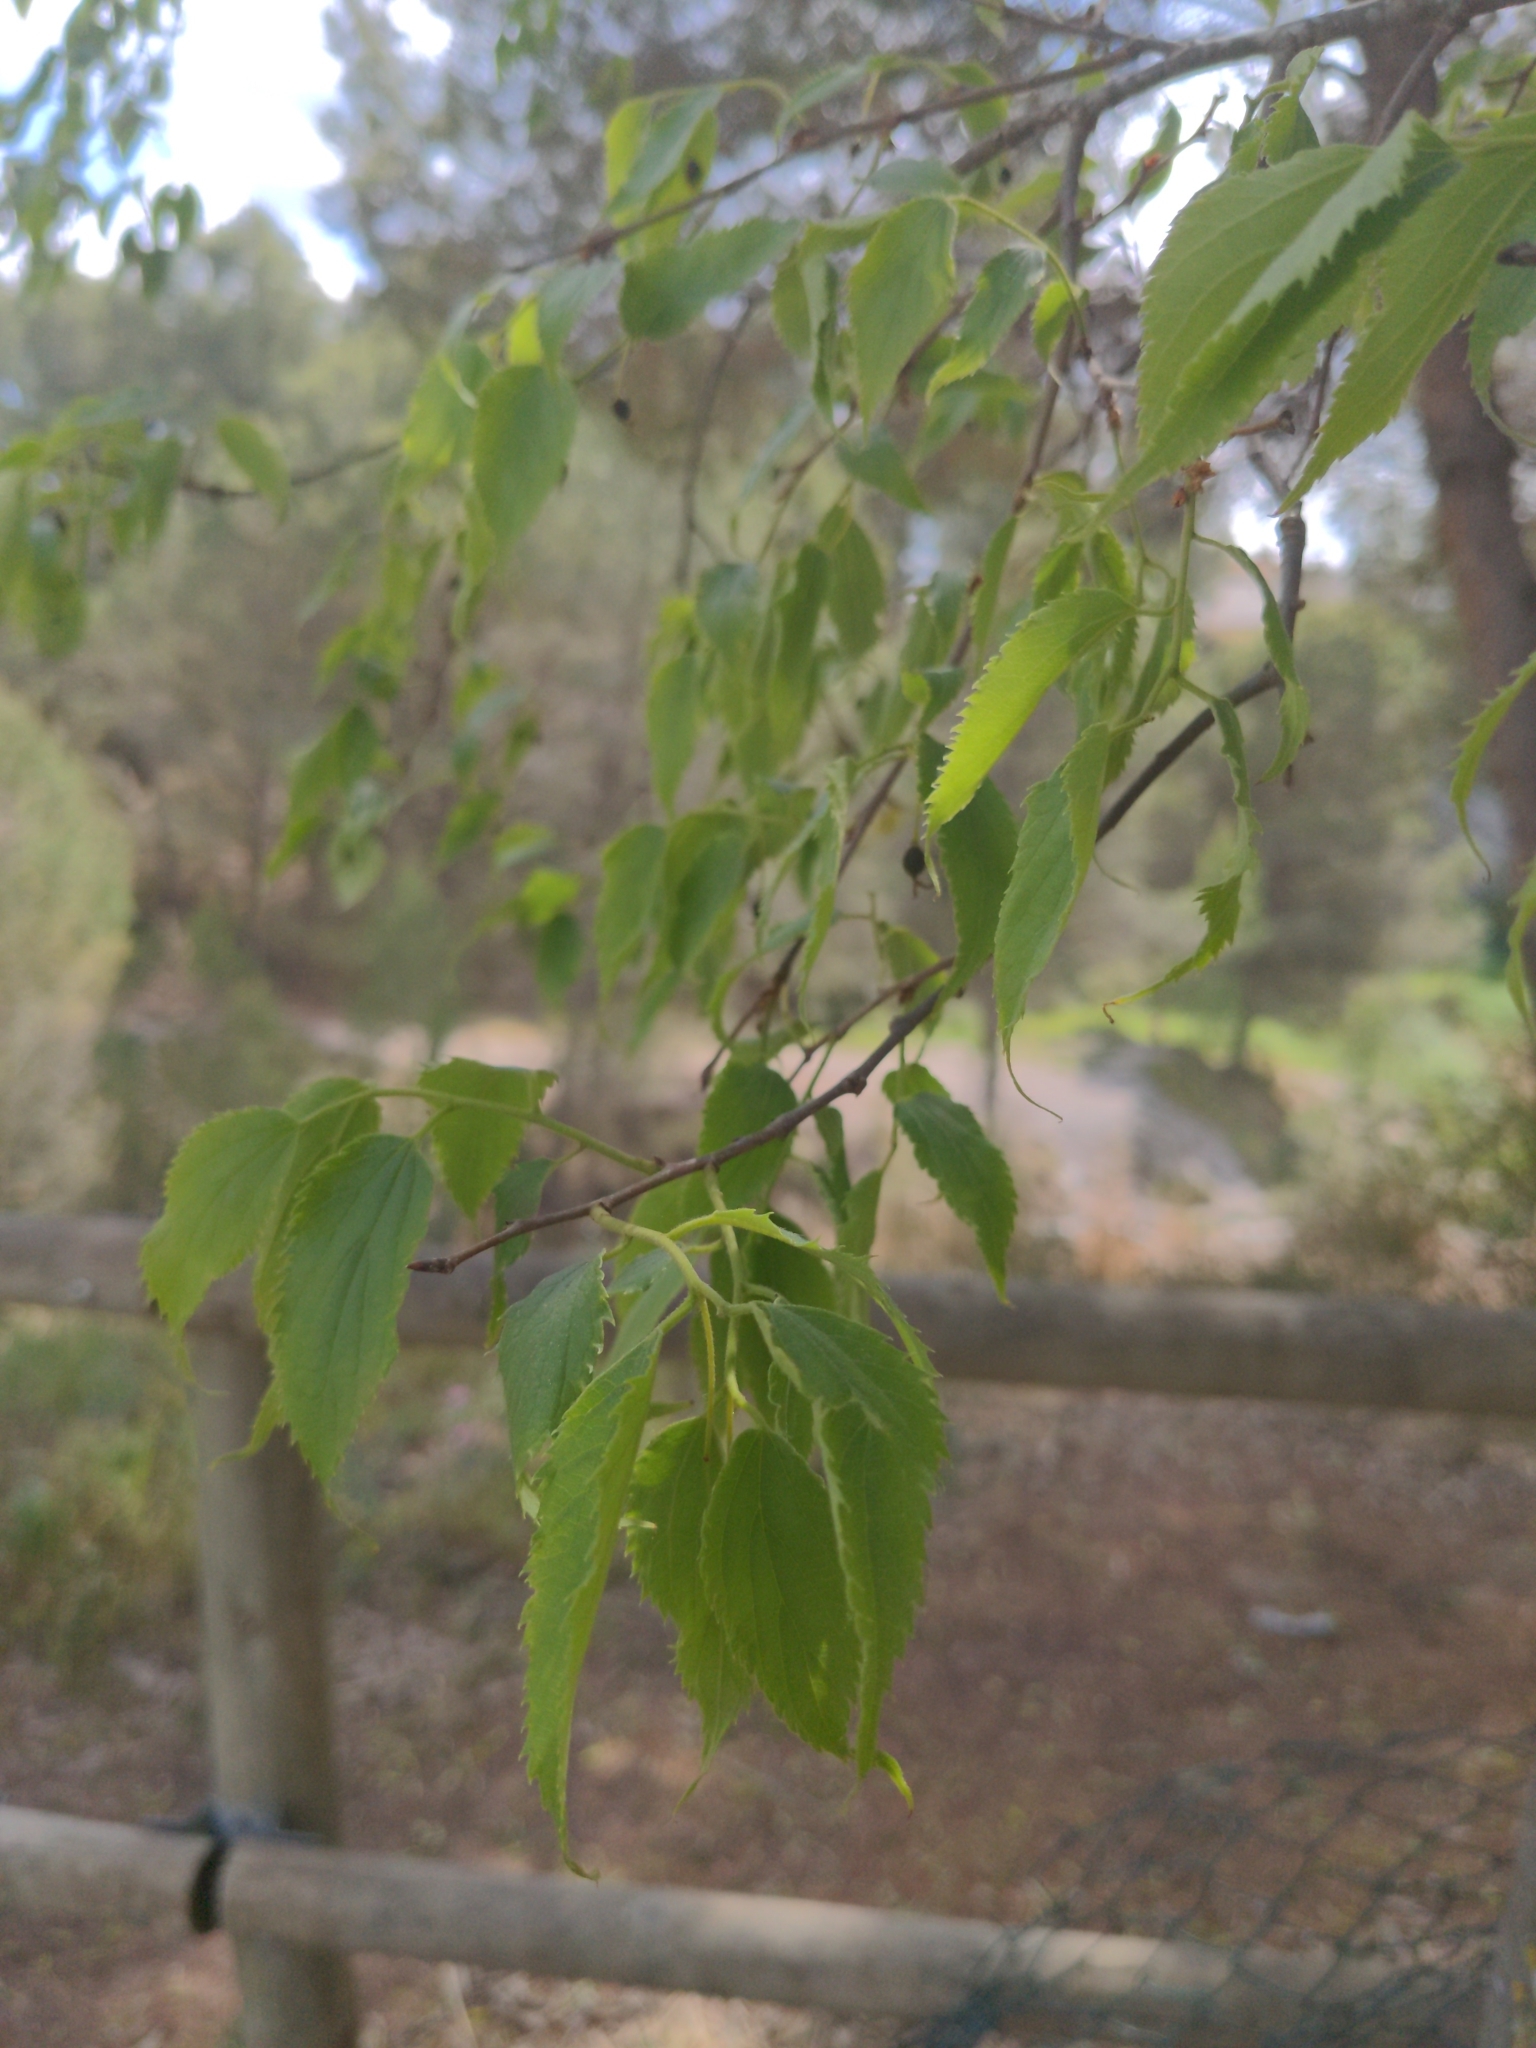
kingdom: Plantae
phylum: Tracheophyta
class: Magnoliopsida
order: Rosales
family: Cannabaceae
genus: Celtis
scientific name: Celtis australis
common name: European hackberry
